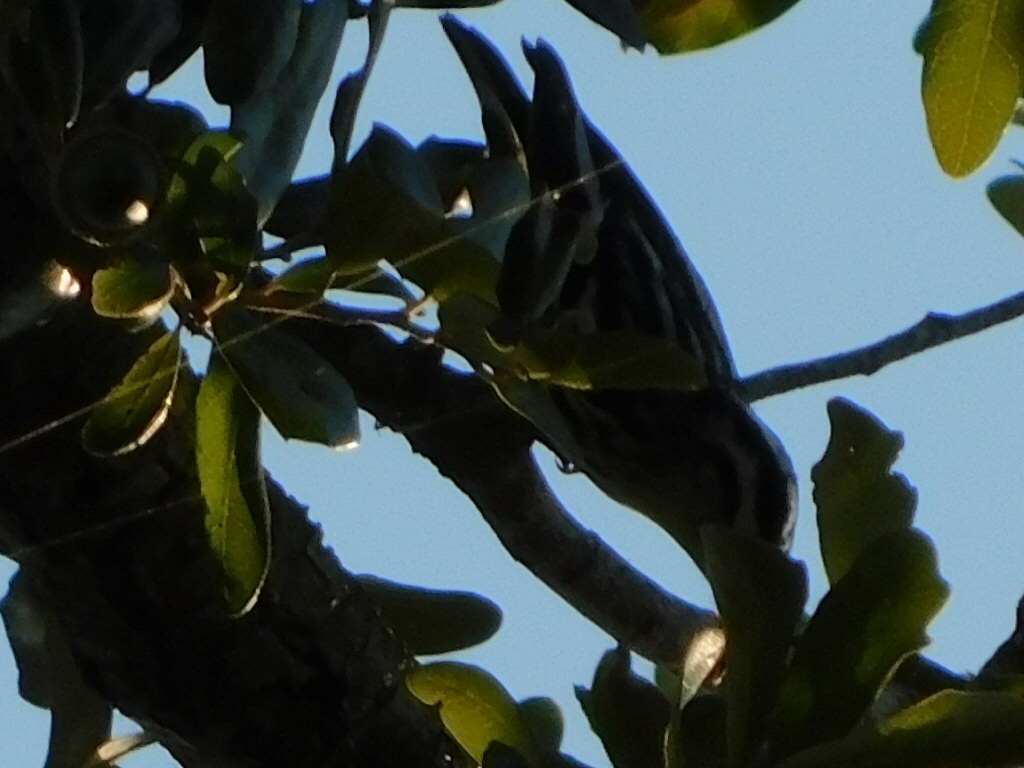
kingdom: Animalia
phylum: Chordata
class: Aves
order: Passeriformes
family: Parulidae
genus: Mniotilta
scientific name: Mniotilta varia
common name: Black-and-white warbler
